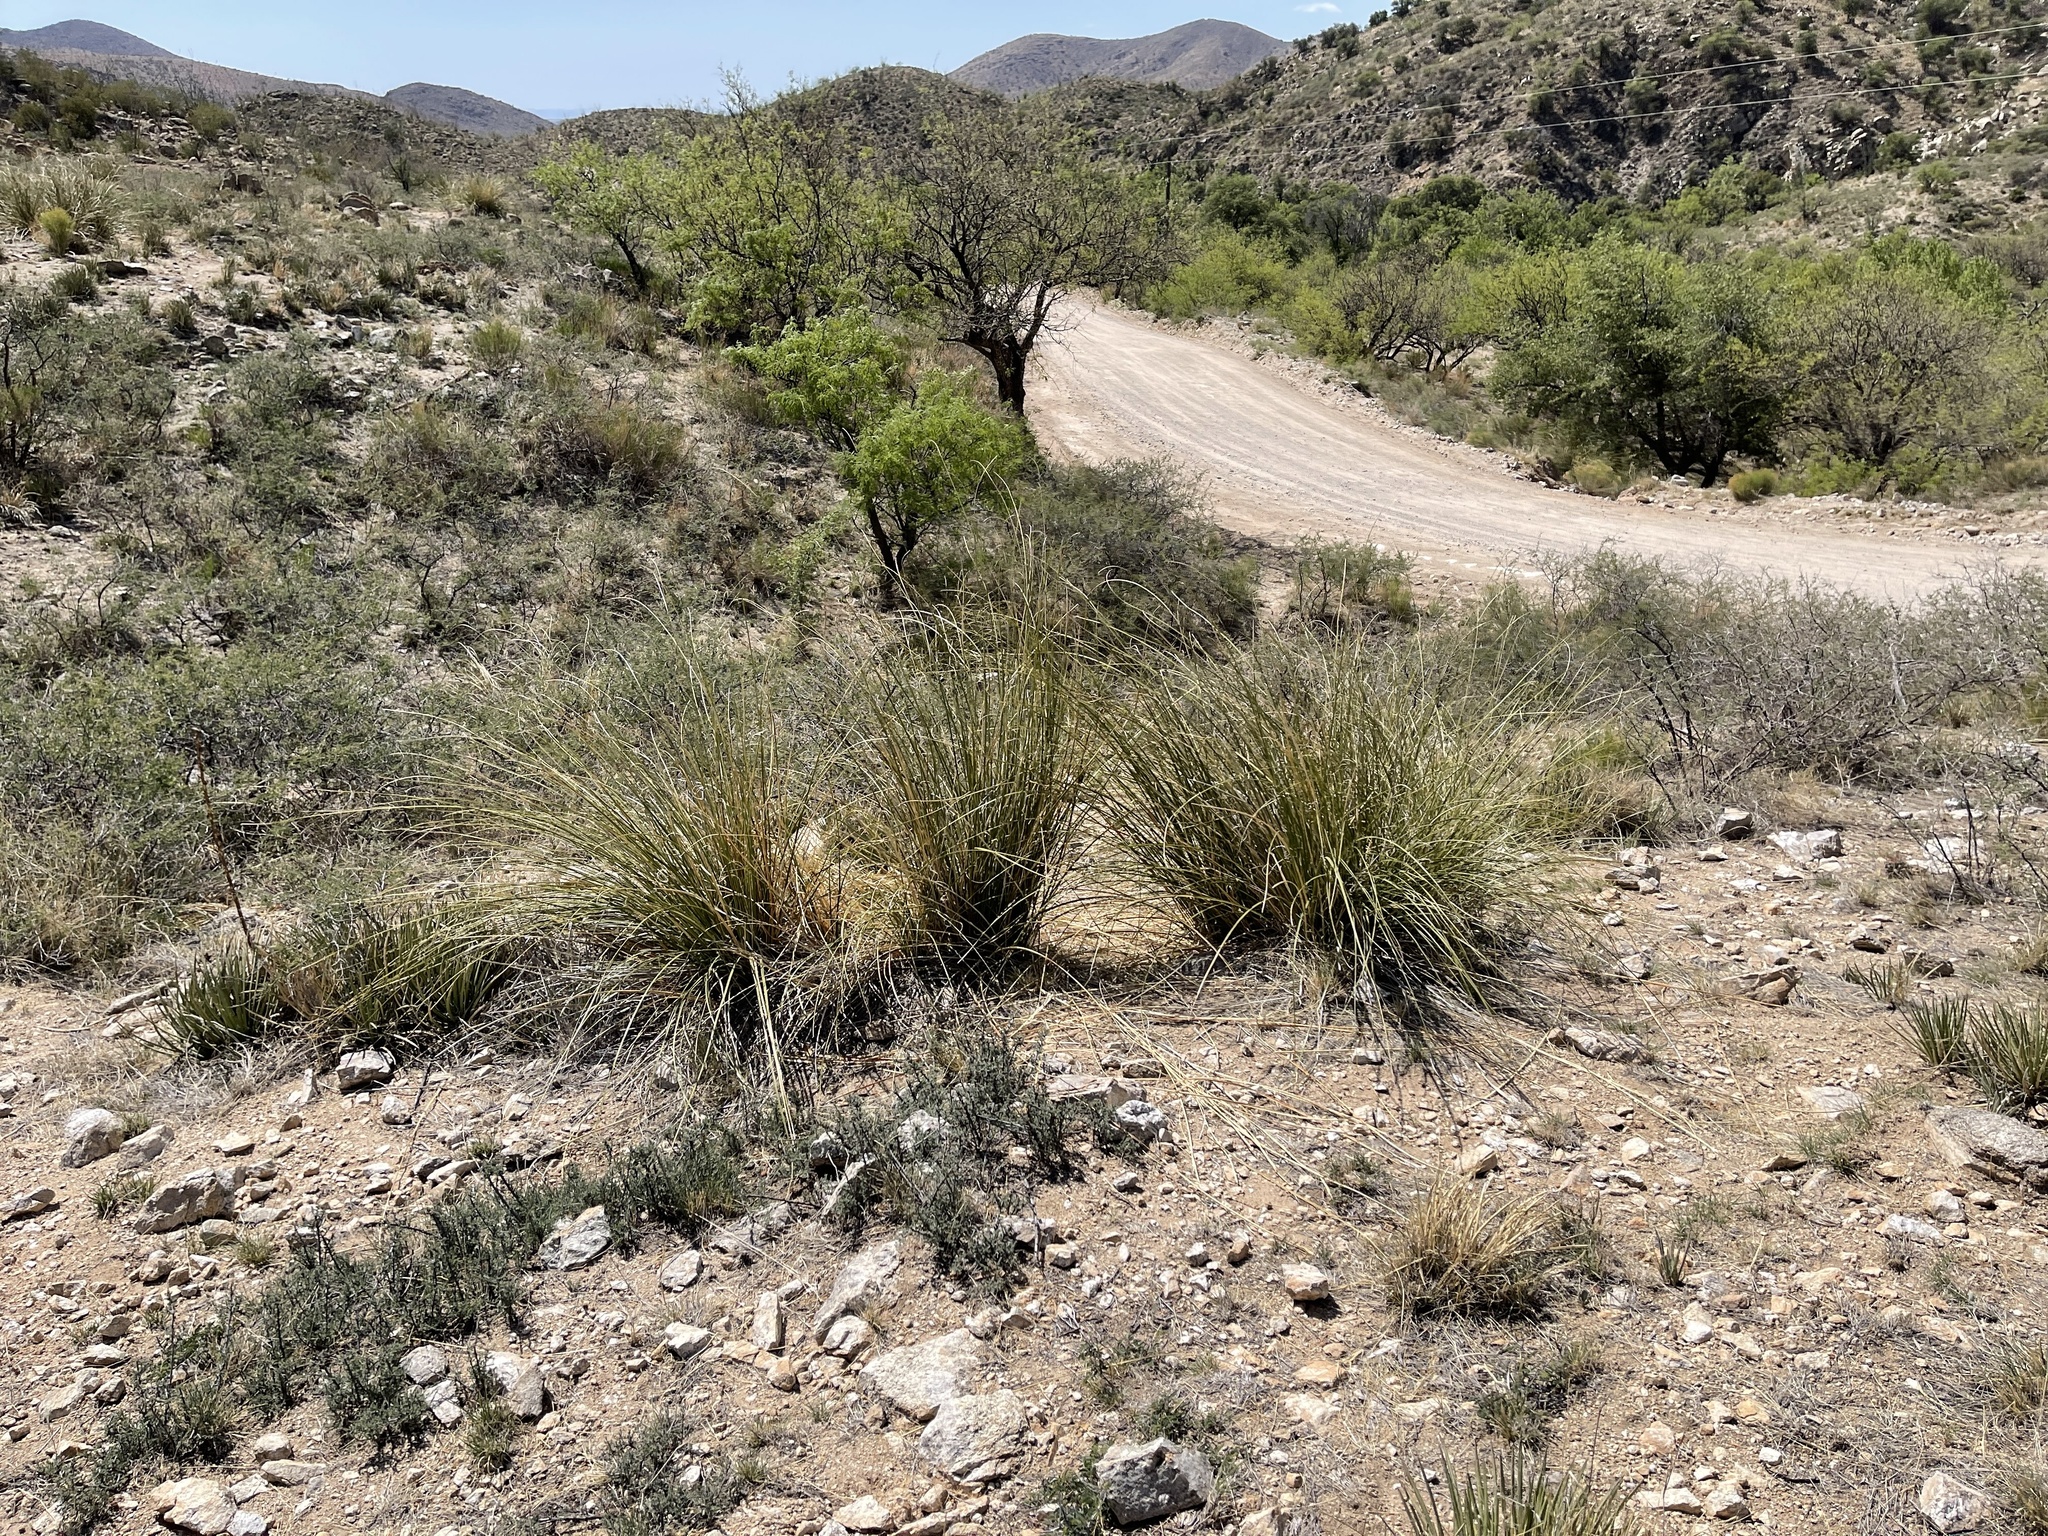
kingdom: Plantae
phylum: Tracheophyta
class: Liliopsida
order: Asparagales
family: Asparagaceae
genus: Nolina
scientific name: Nolina microcarpa
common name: Bear-grass
